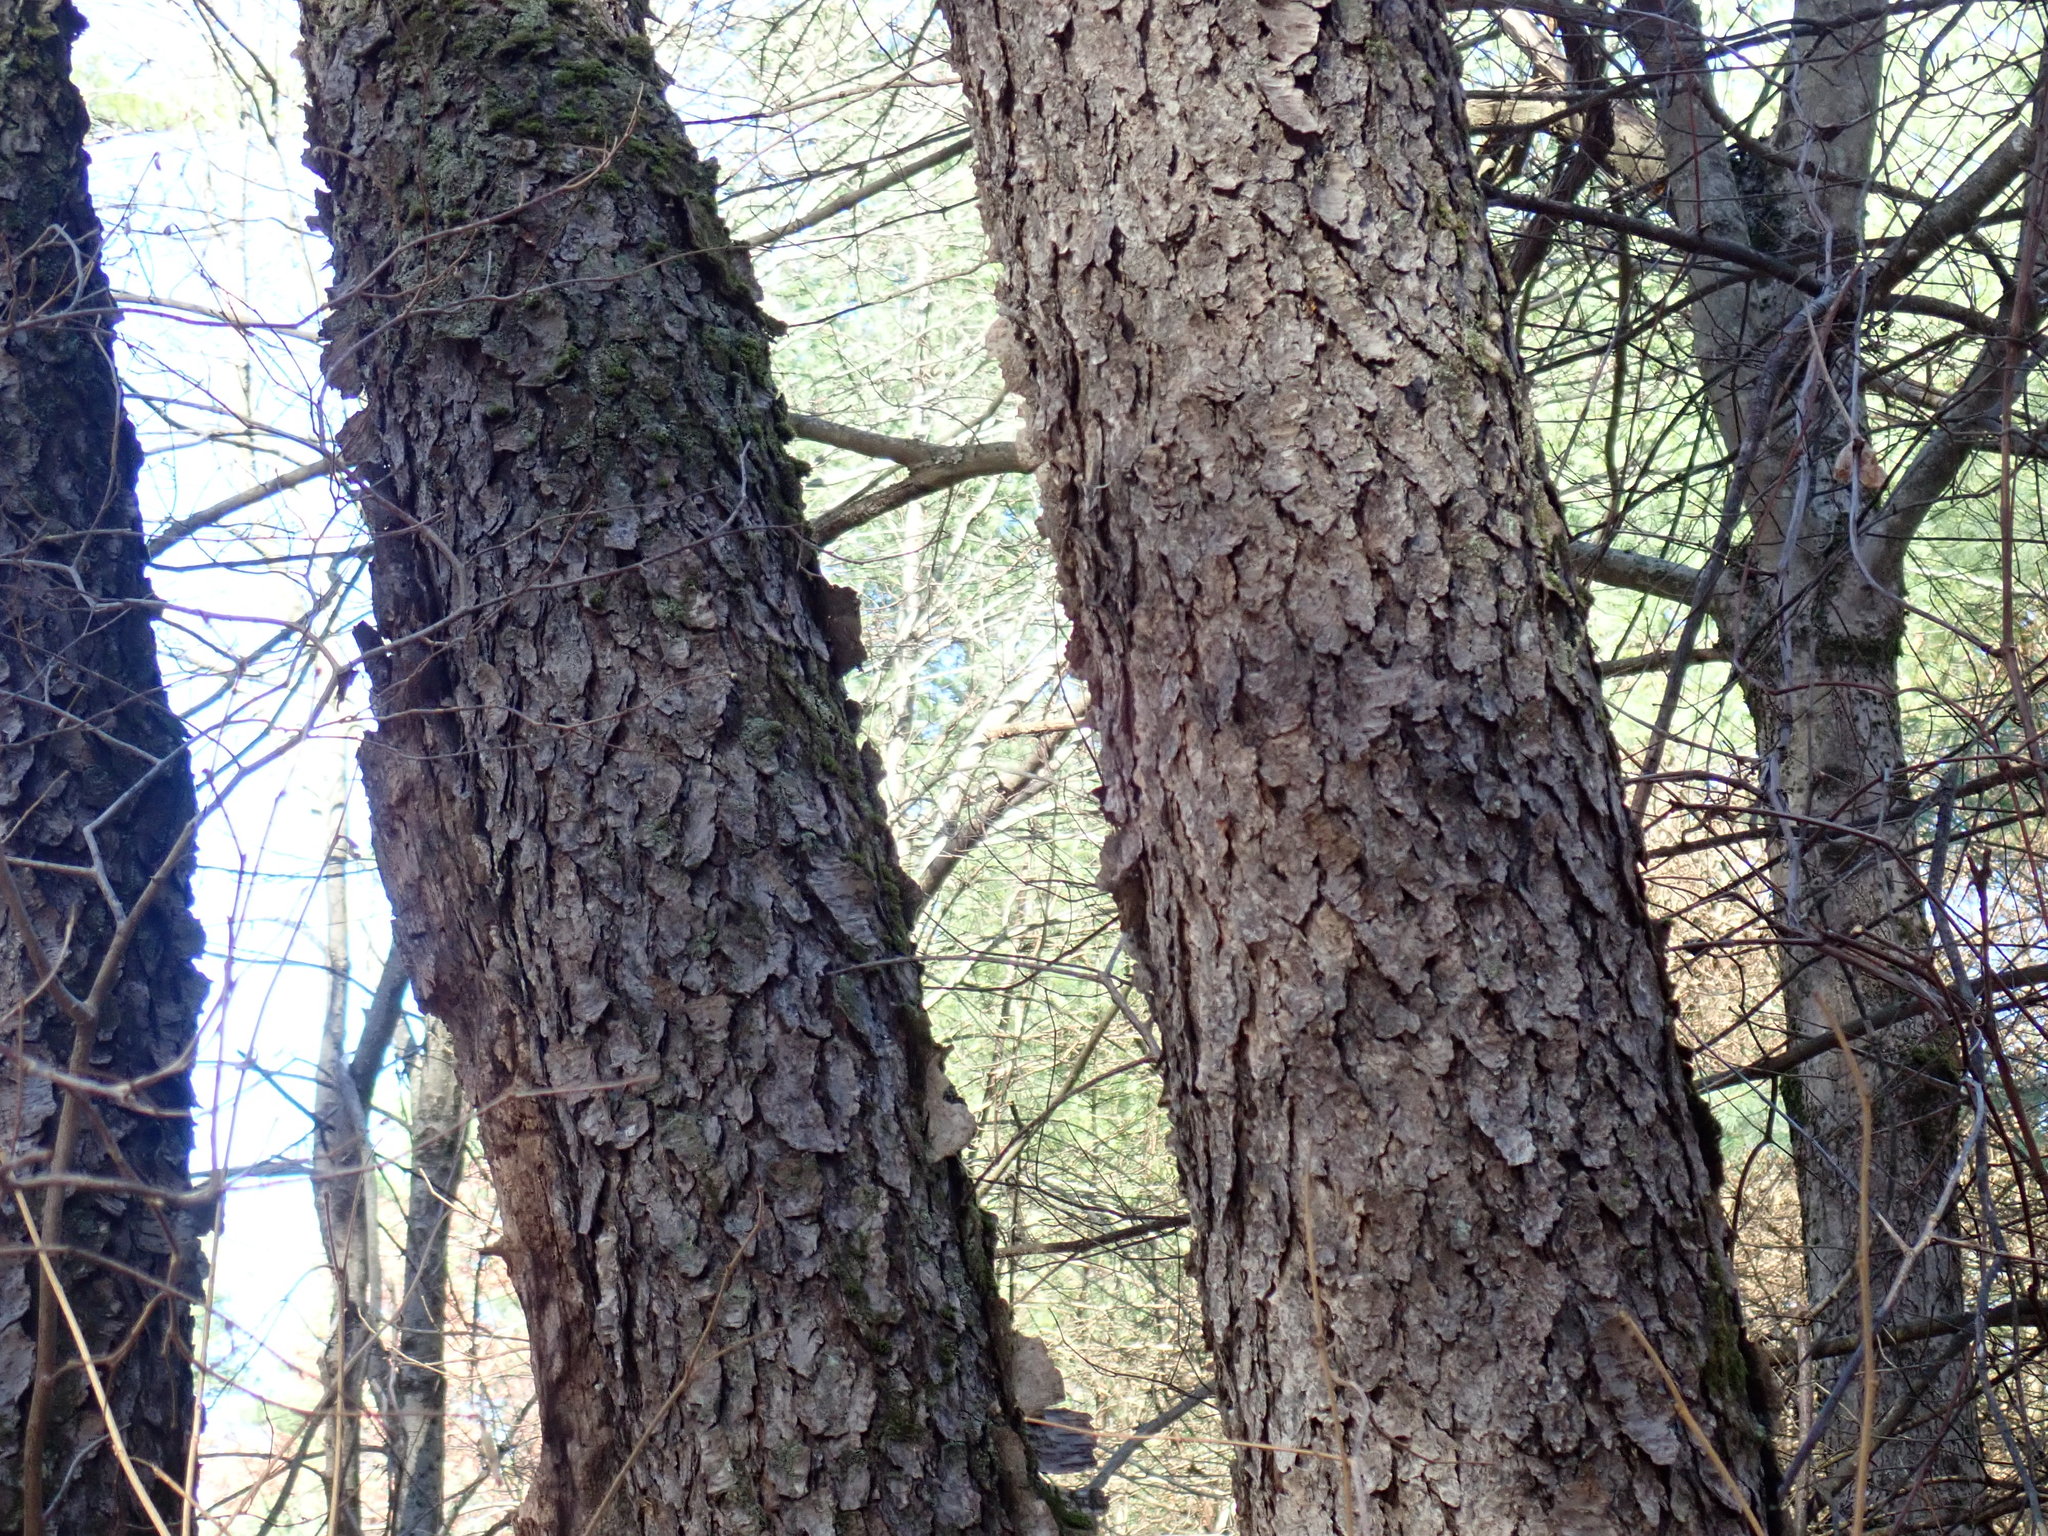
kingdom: Plantae
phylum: Tracheophyta
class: Magnoliopsida
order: Rosales
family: Rosaceae
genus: Prunus
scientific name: Prunus serotina
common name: Black cherry
